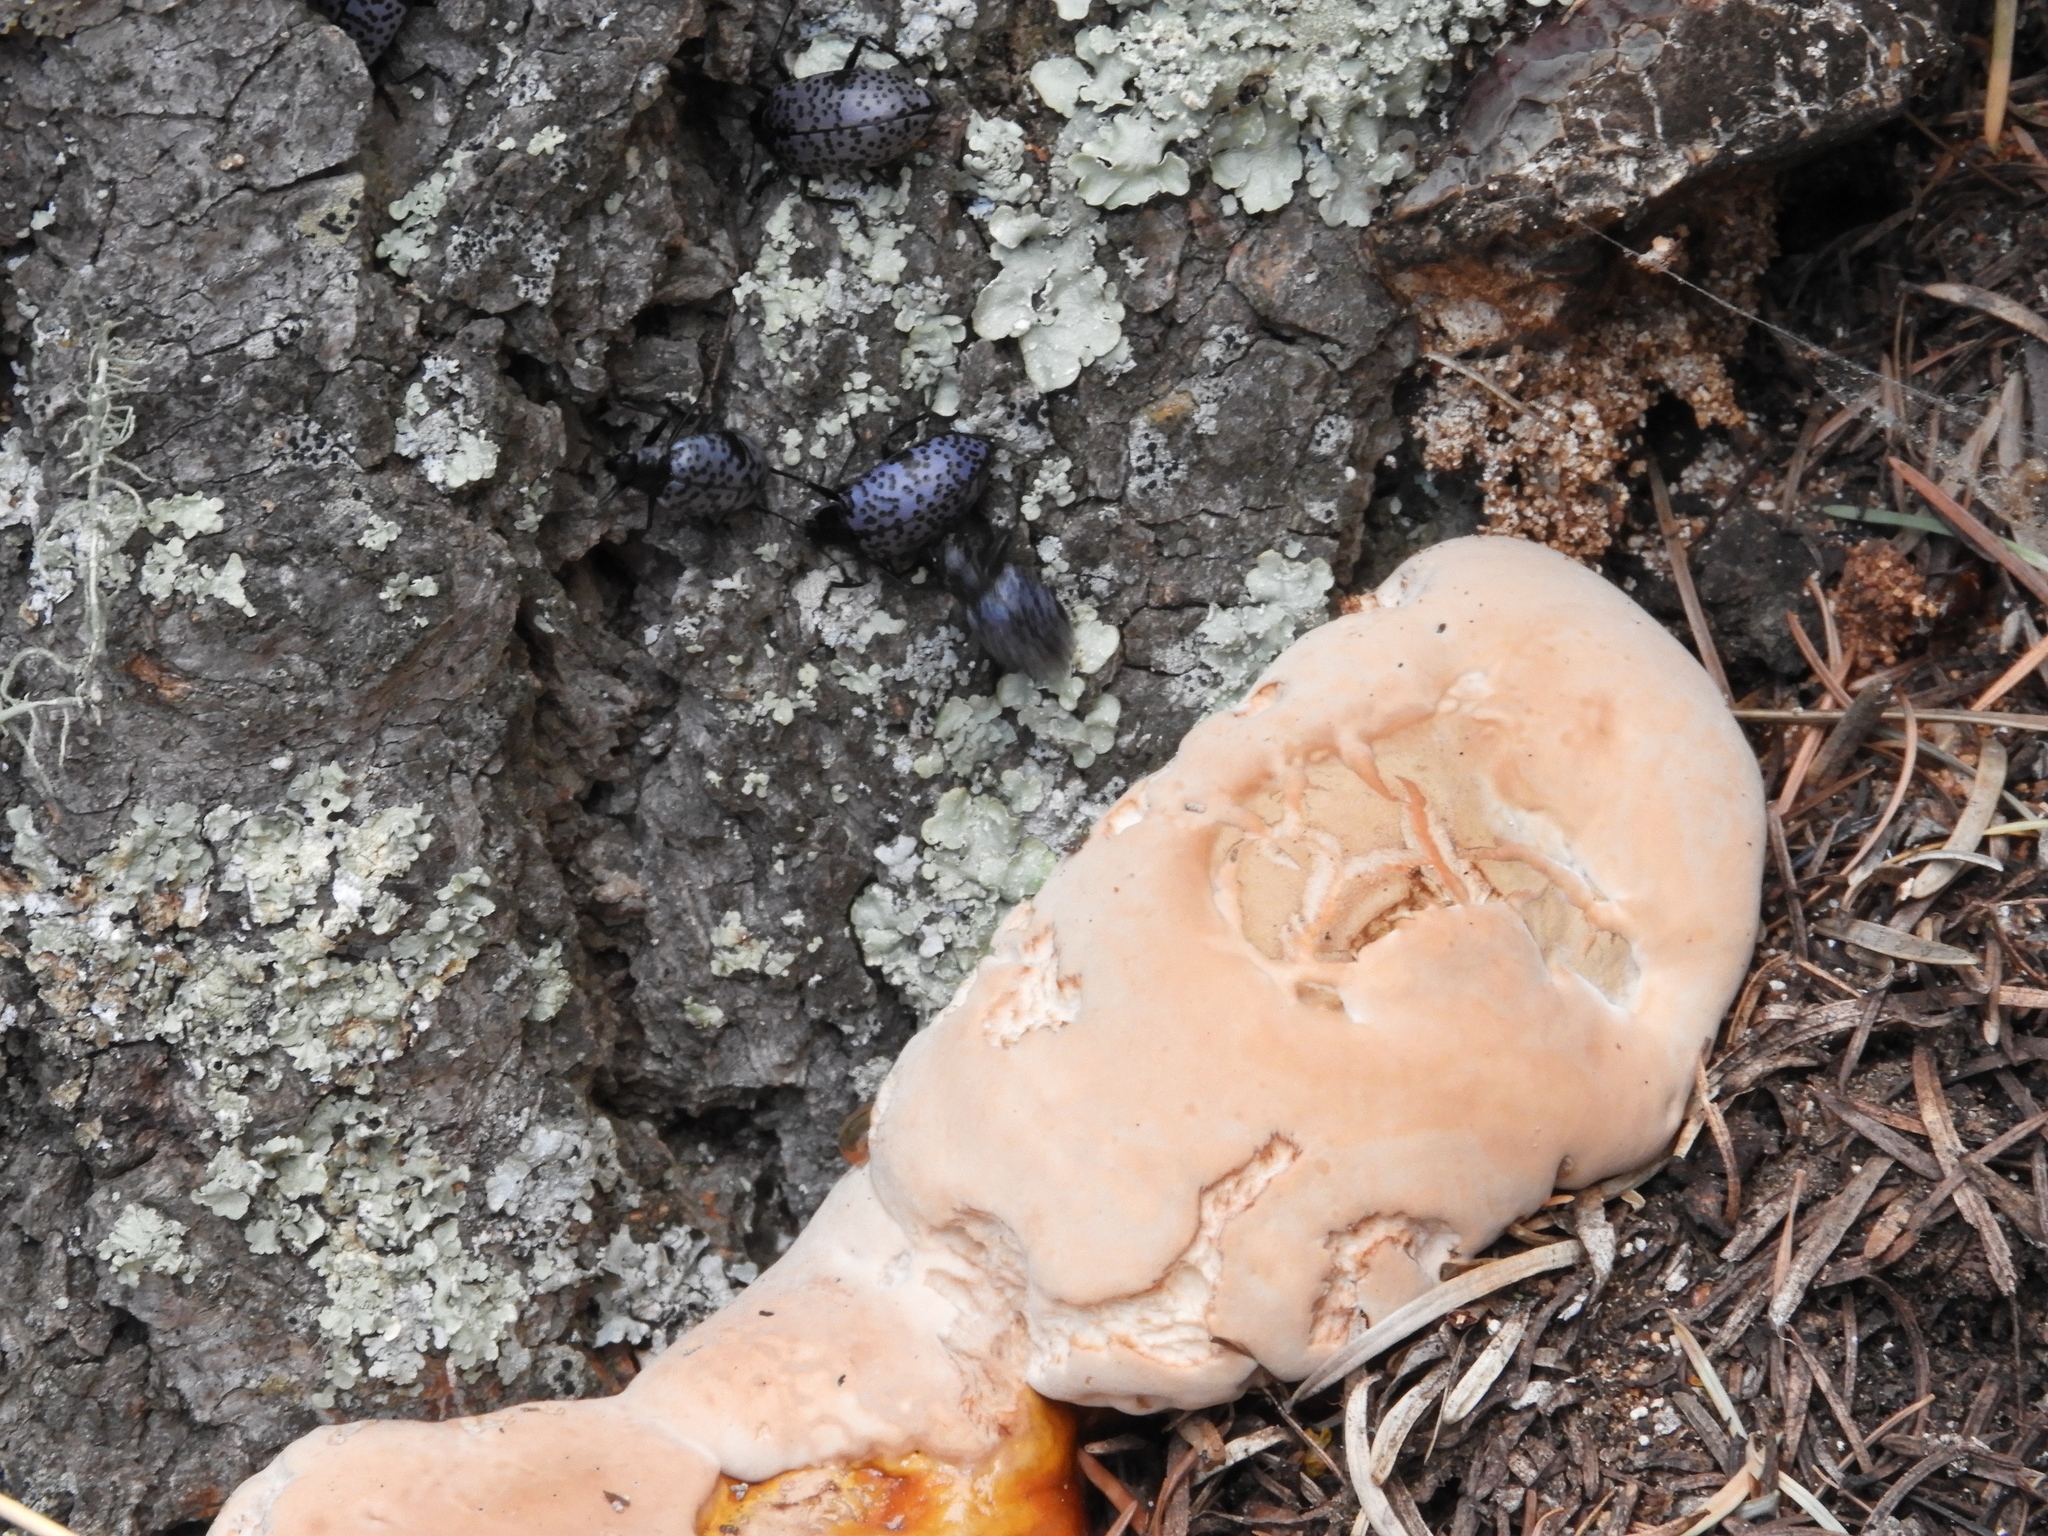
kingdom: Animalia
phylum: Arthropoda
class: Insecta
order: Coleoptera
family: Erotylidae
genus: Gibbifer
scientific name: Gibbifer californicus
